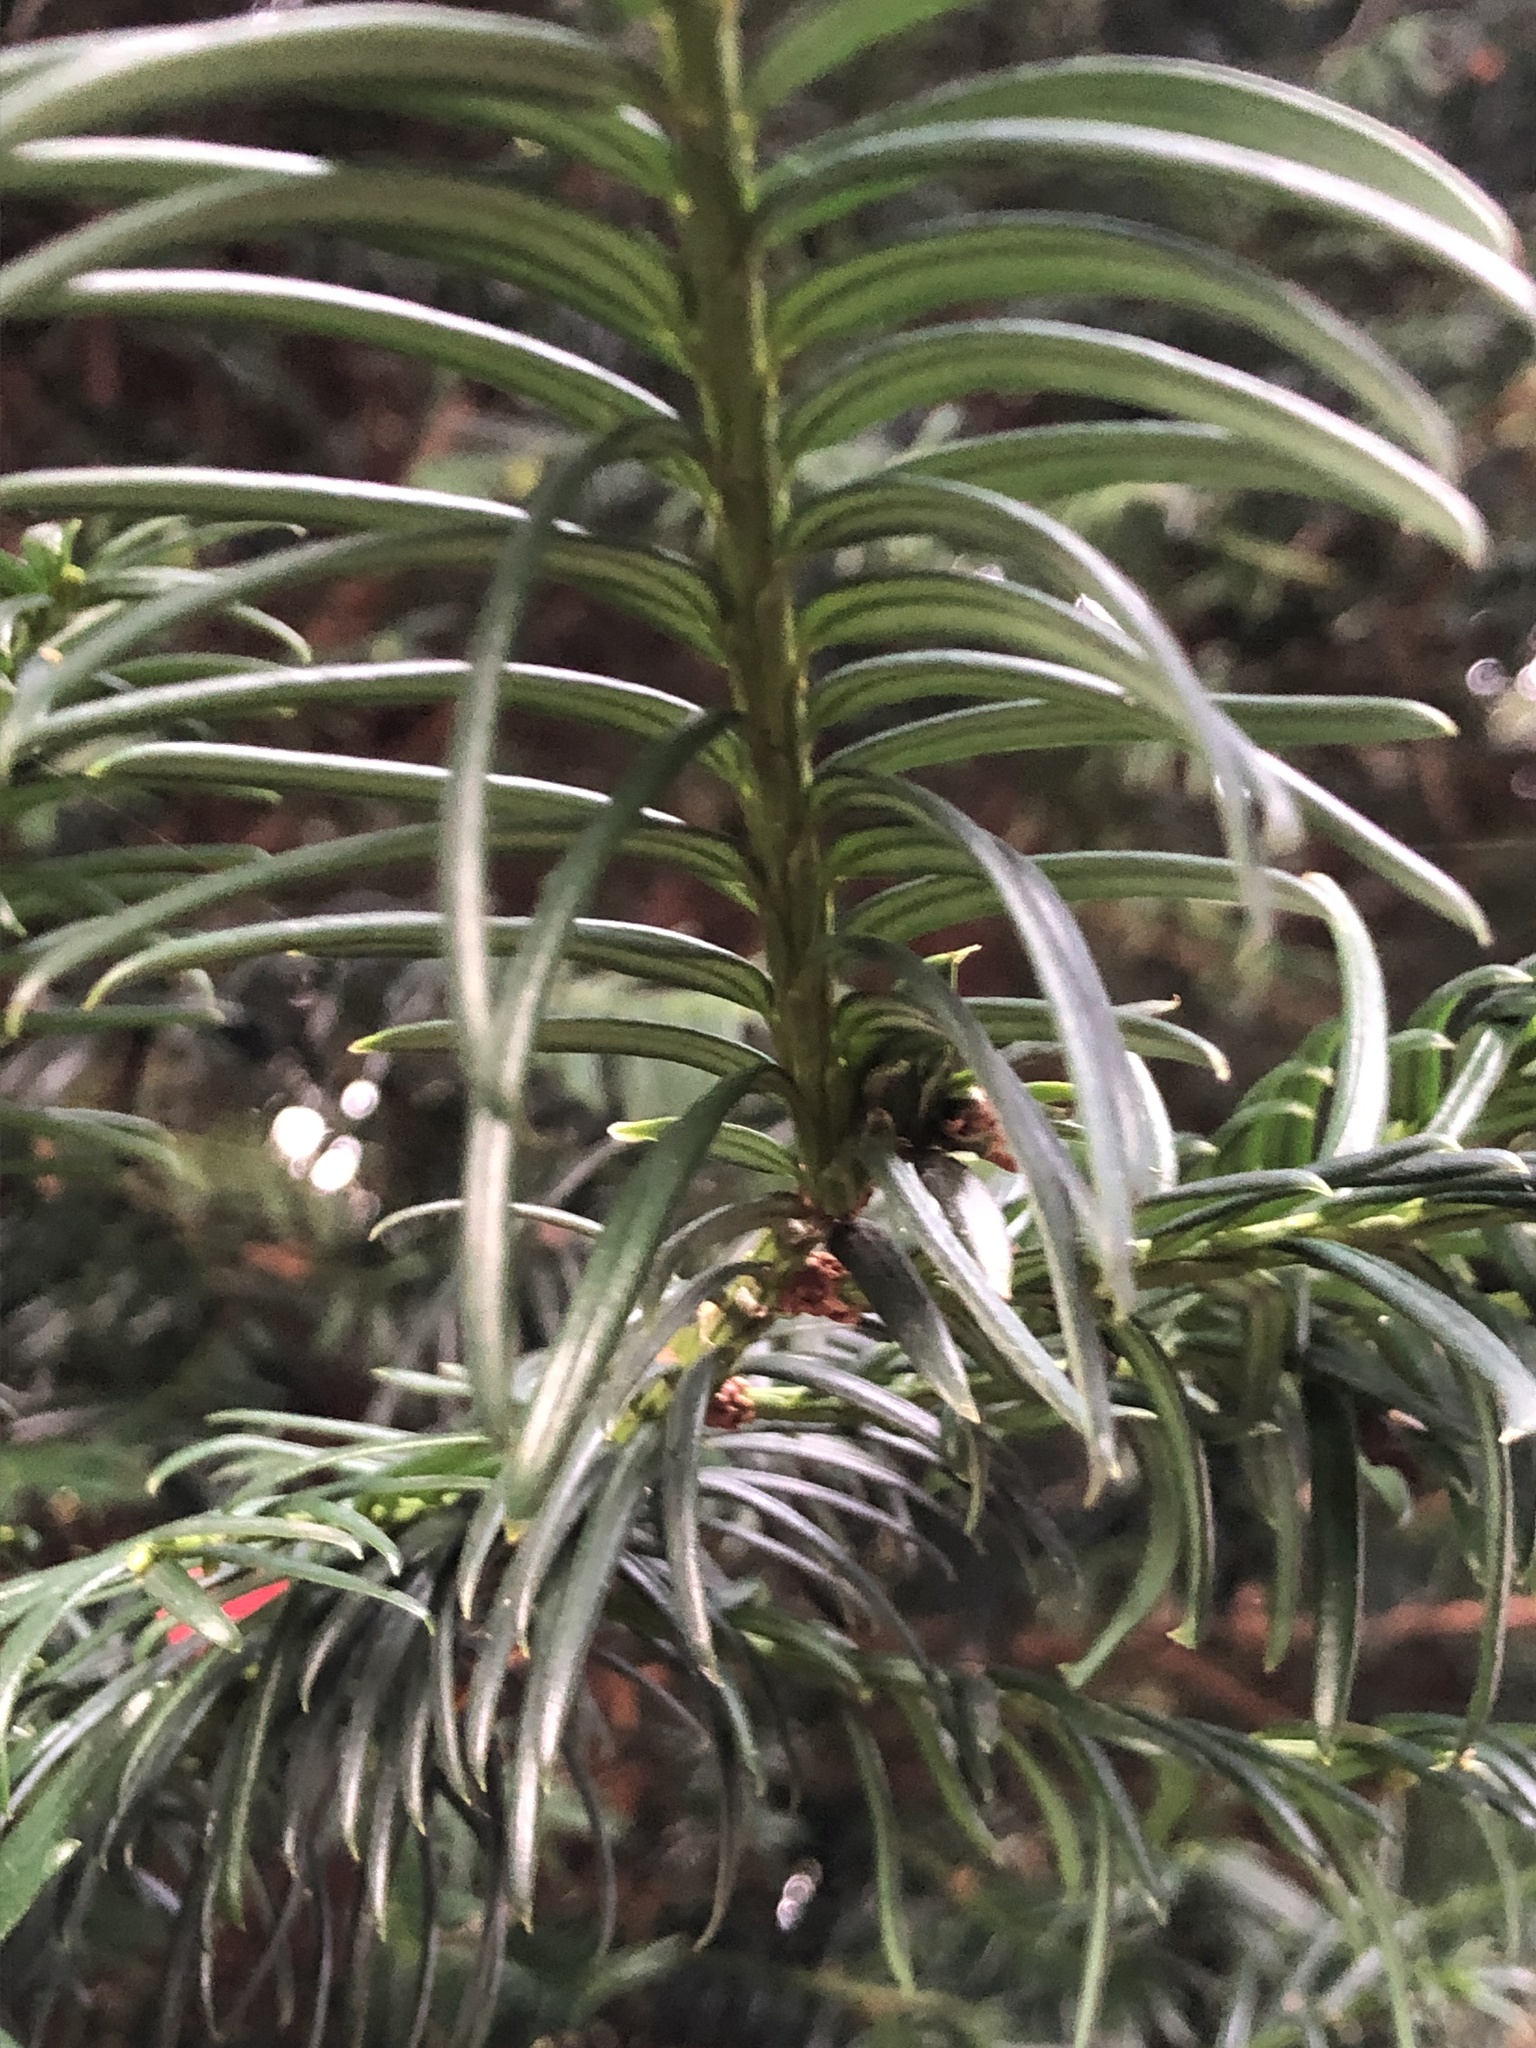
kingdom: Plantae
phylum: Tracheophyta
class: Pinopsida
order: Pinales
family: Taxaceae
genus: Taxus
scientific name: Taxus baccata
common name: Yew
